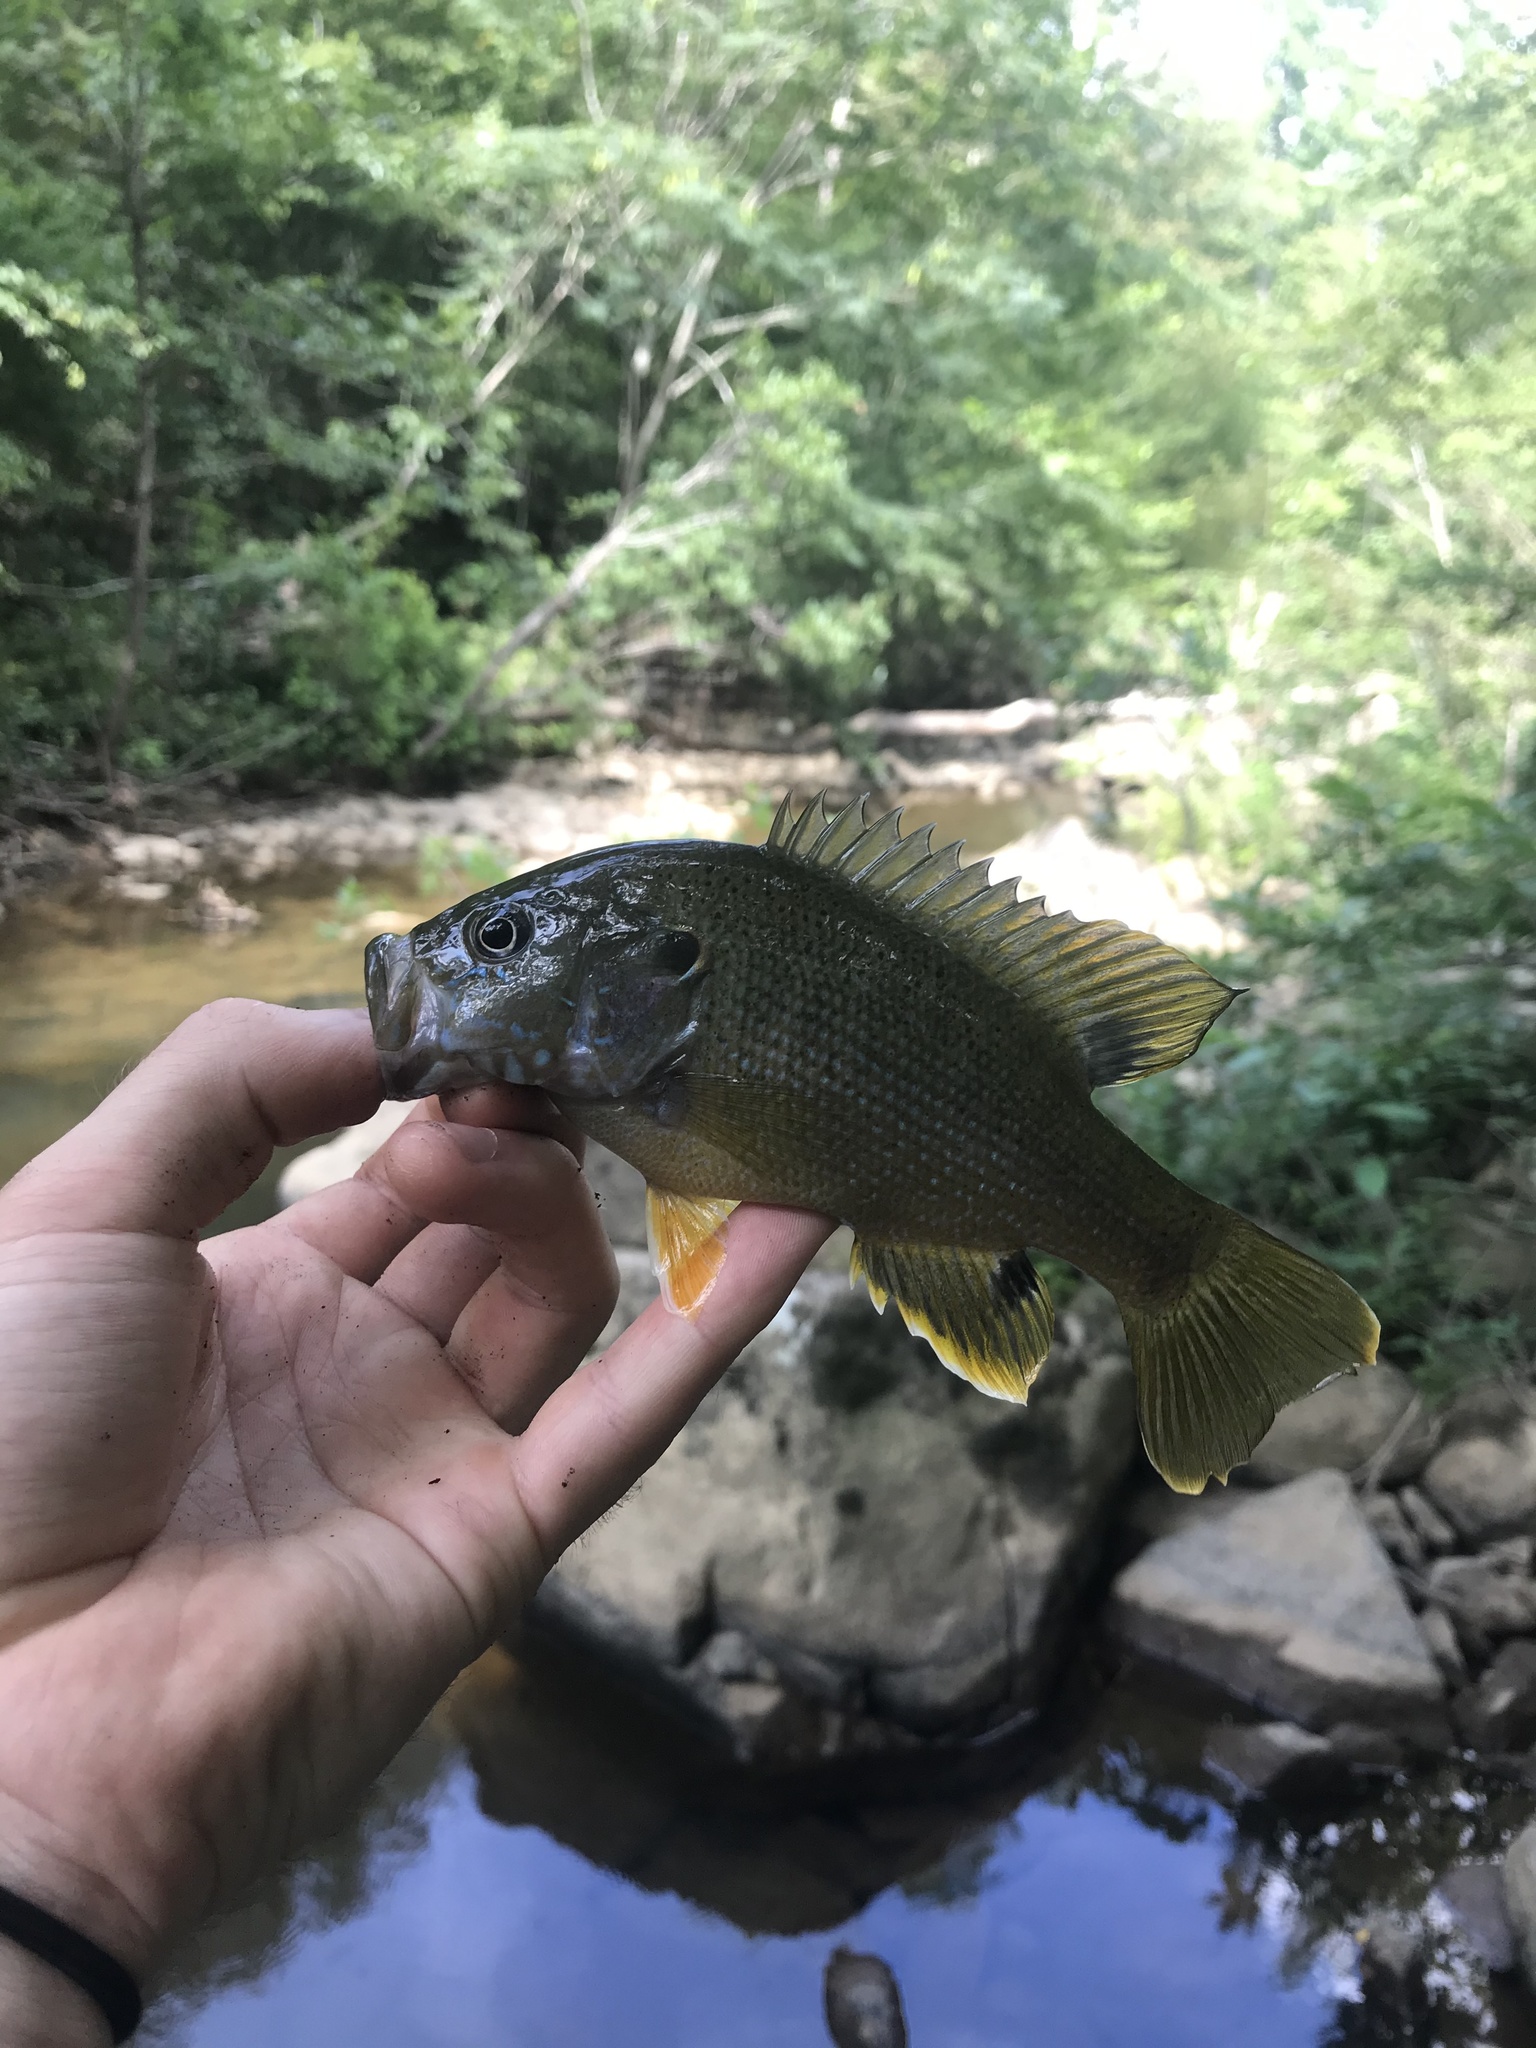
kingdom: Animalia
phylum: Chordata
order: Perciformes
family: Centrarchidae
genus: Lepomis
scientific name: Lepomis cyanellus
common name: Green sunfish
